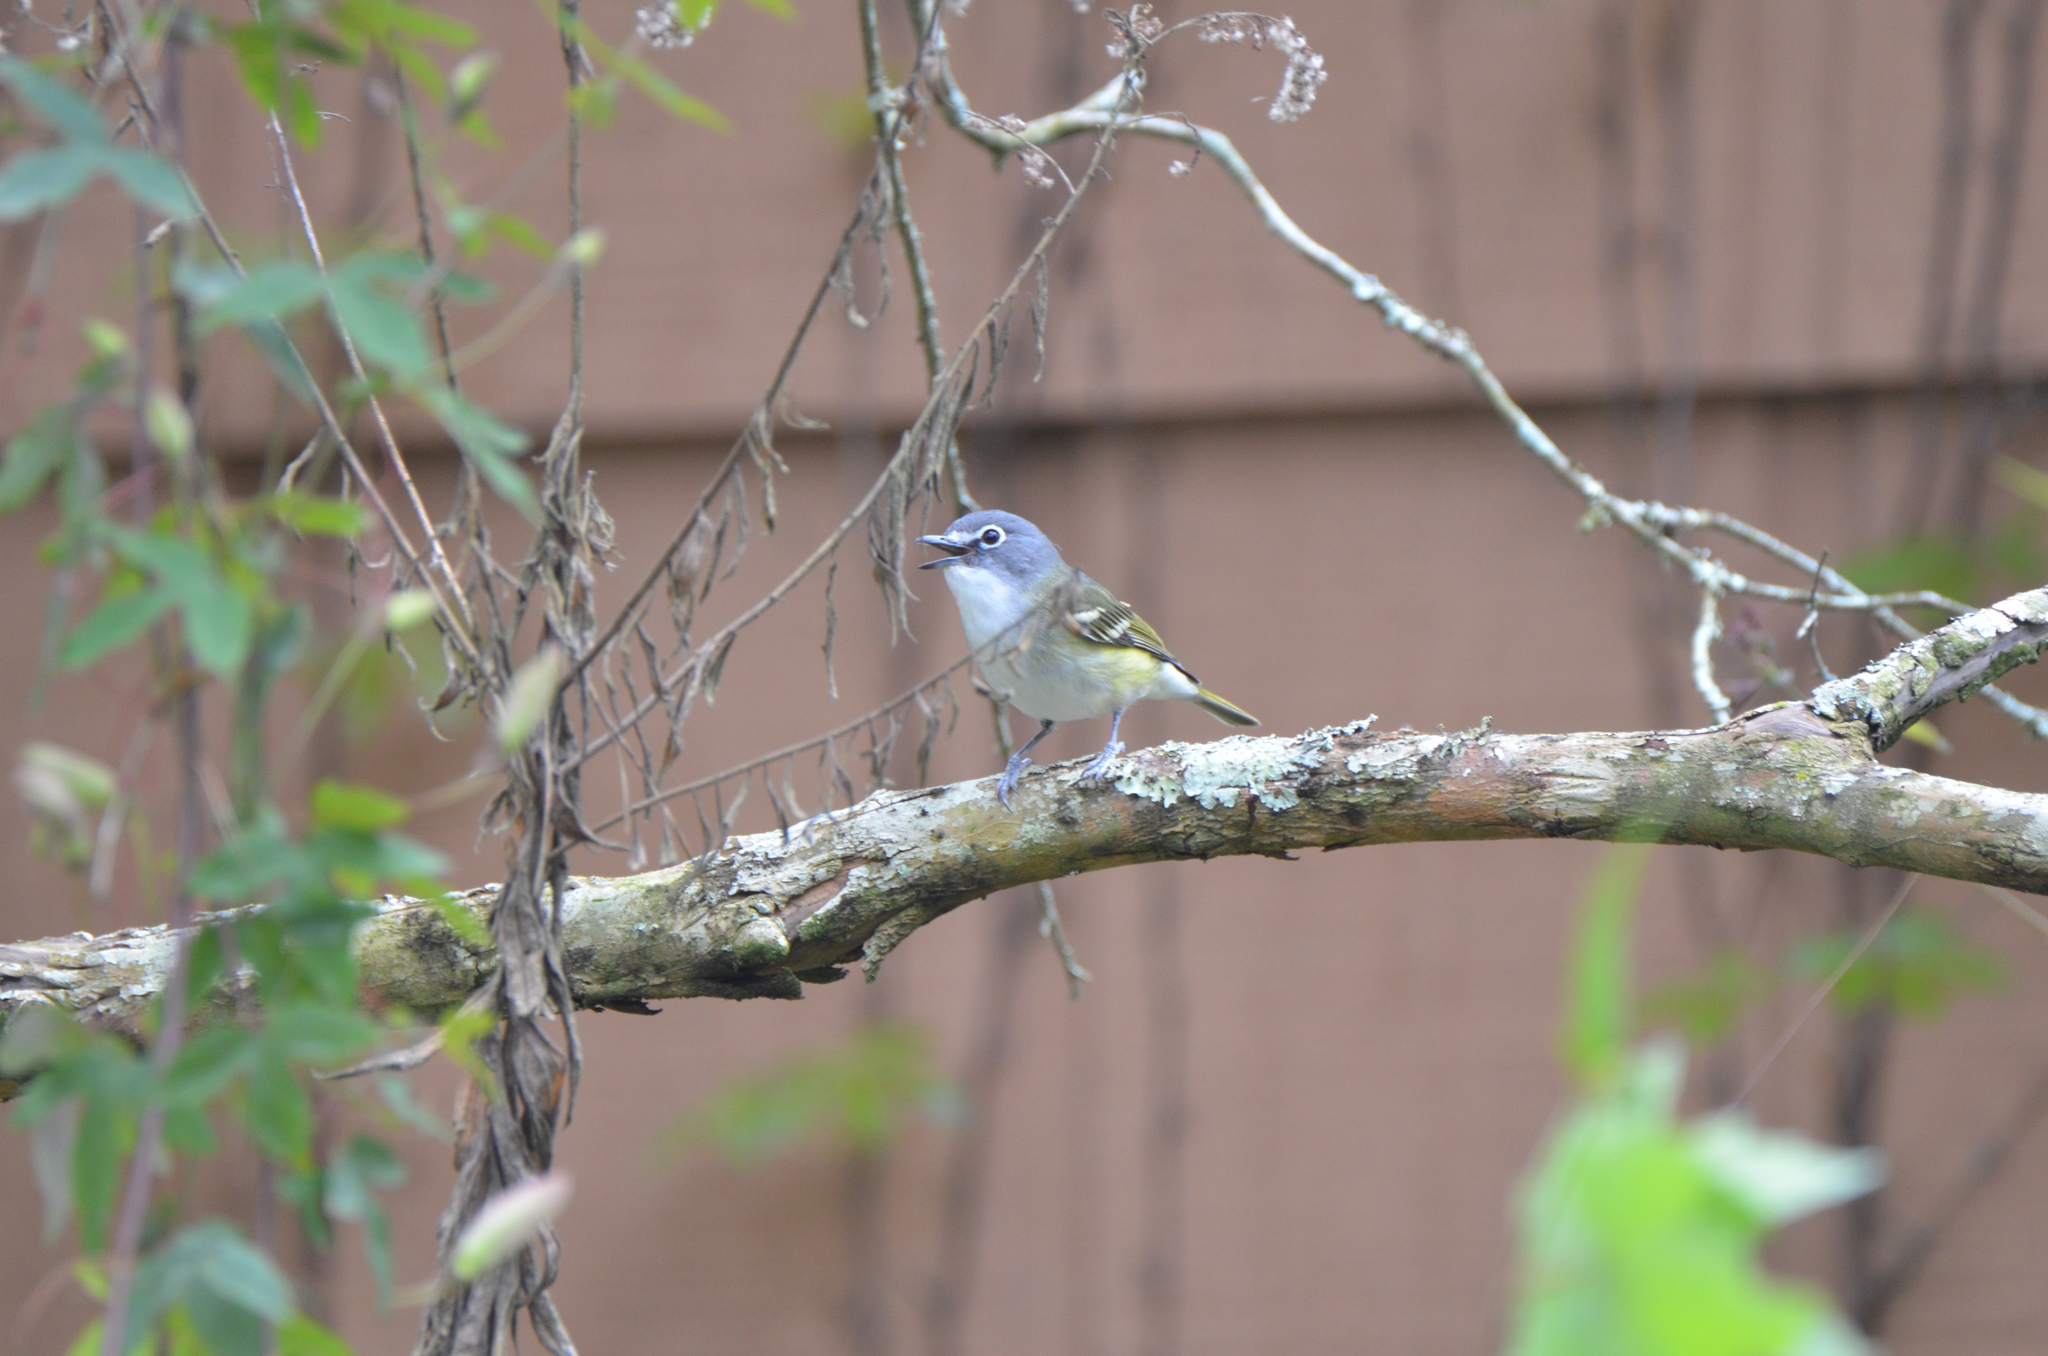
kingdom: Animalia
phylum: Chordata
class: Aves
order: Passeriformes
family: Vireonidae
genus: Vireo
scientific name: Vireo solitarius
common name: Blue-headed vireo
